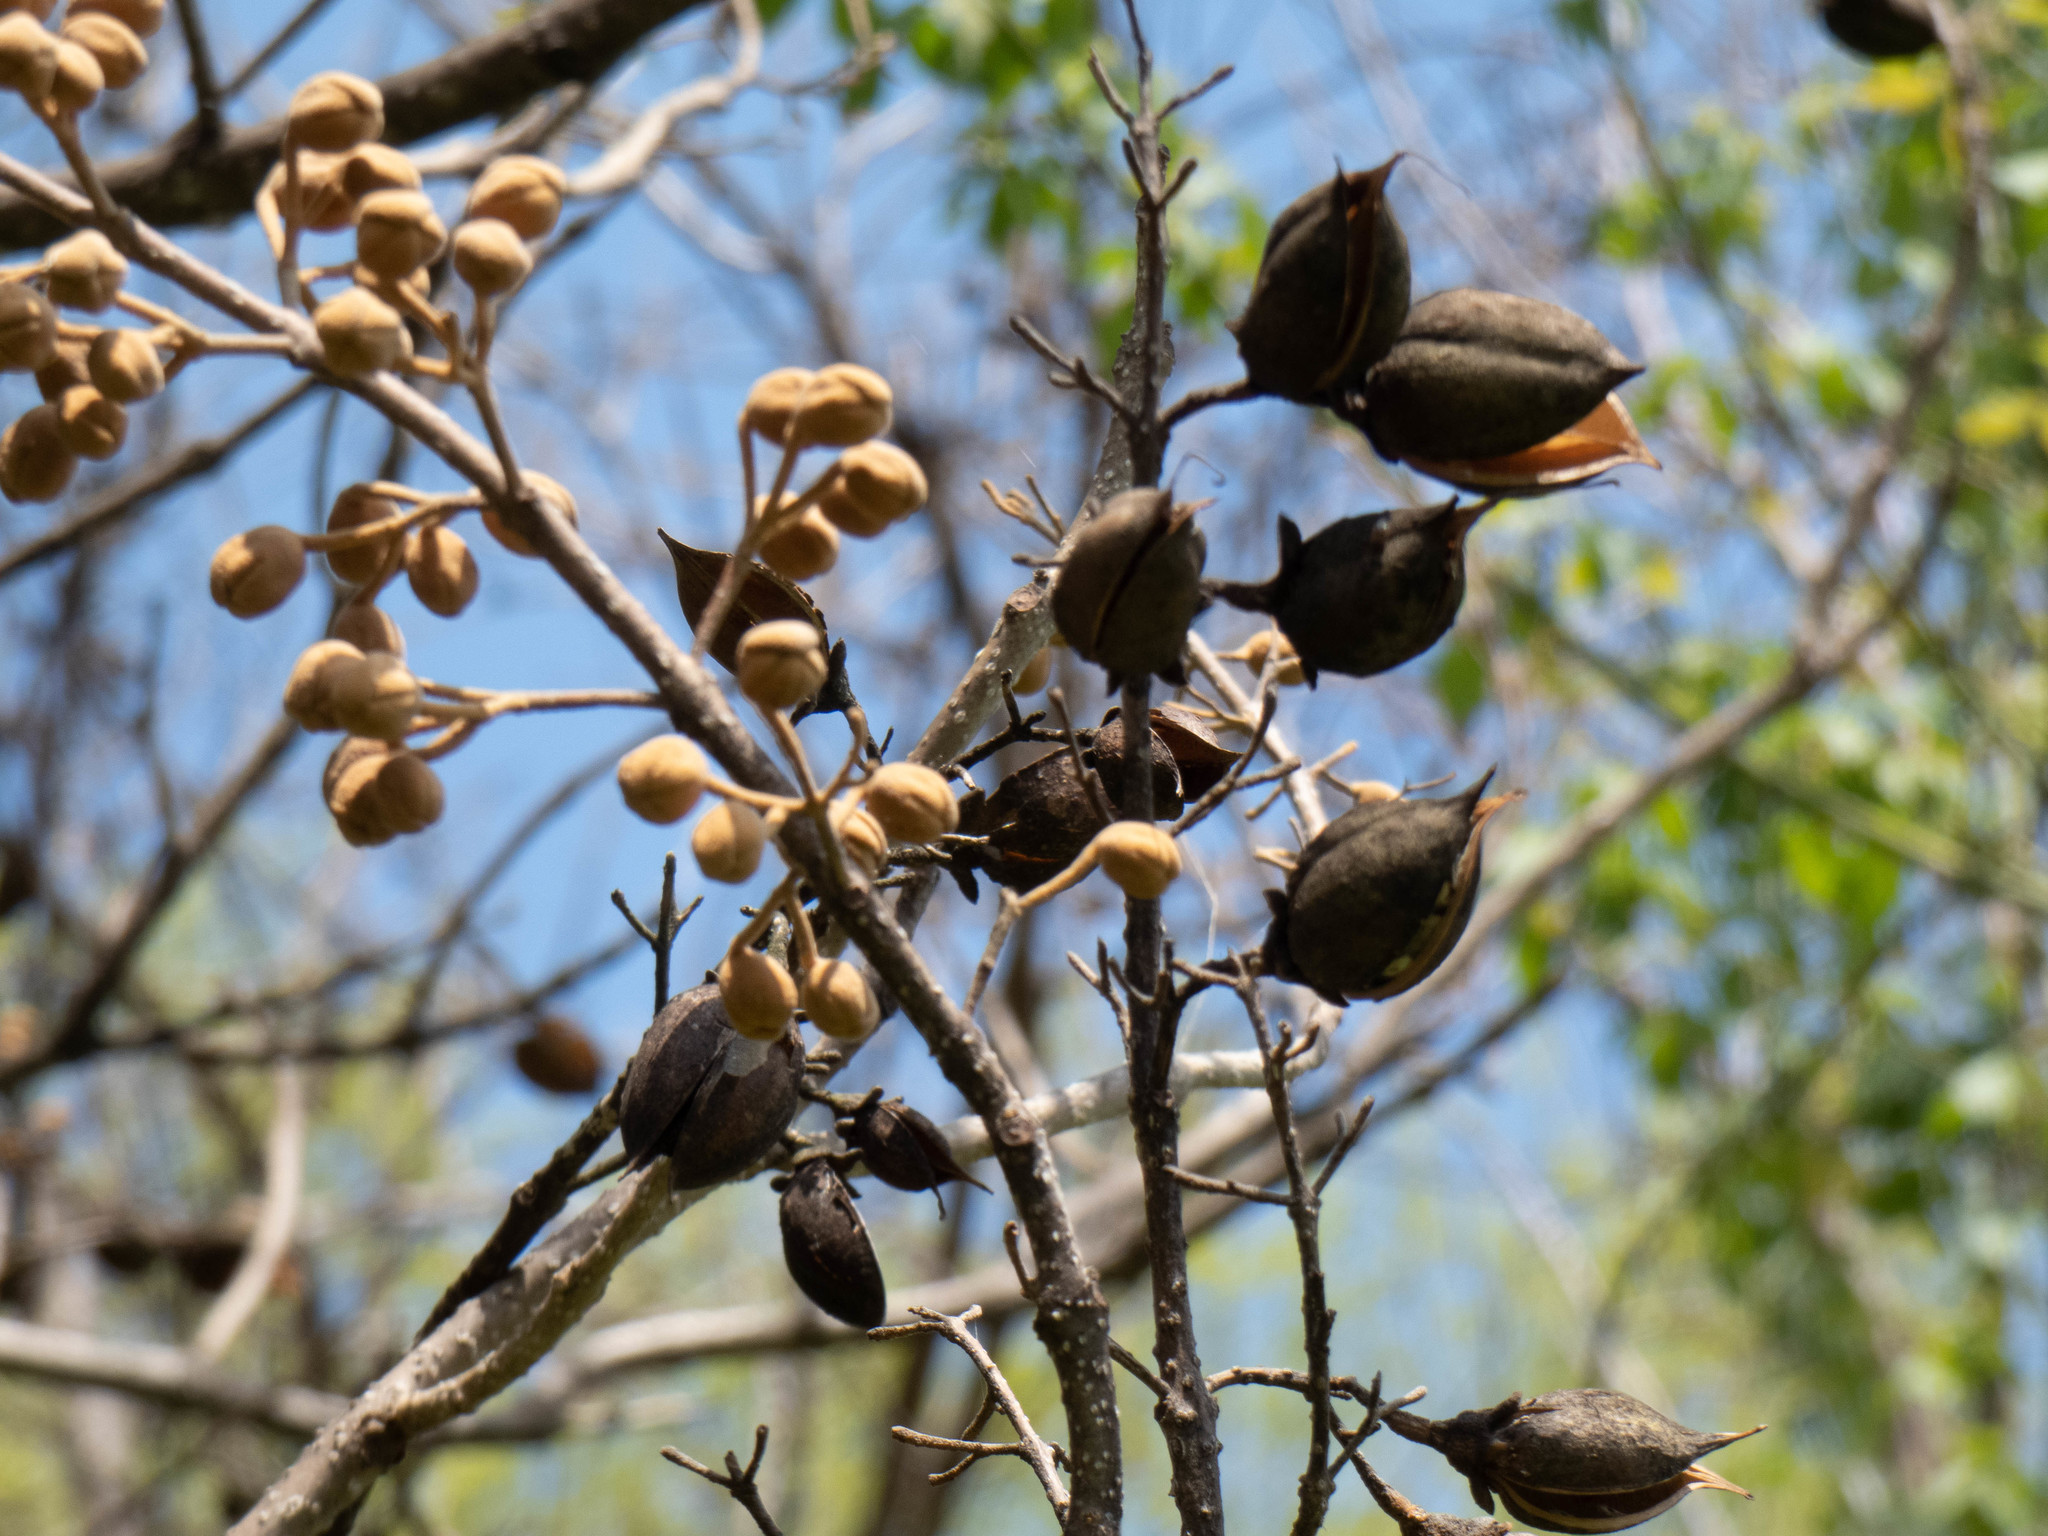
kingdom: Plantae
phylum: Tracheophyta
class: Magnoliopsida
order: Lamiales
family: Paulowniaceae
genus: Paulownia
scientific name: Paulownia tomentosa
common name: Foxglove-tree
